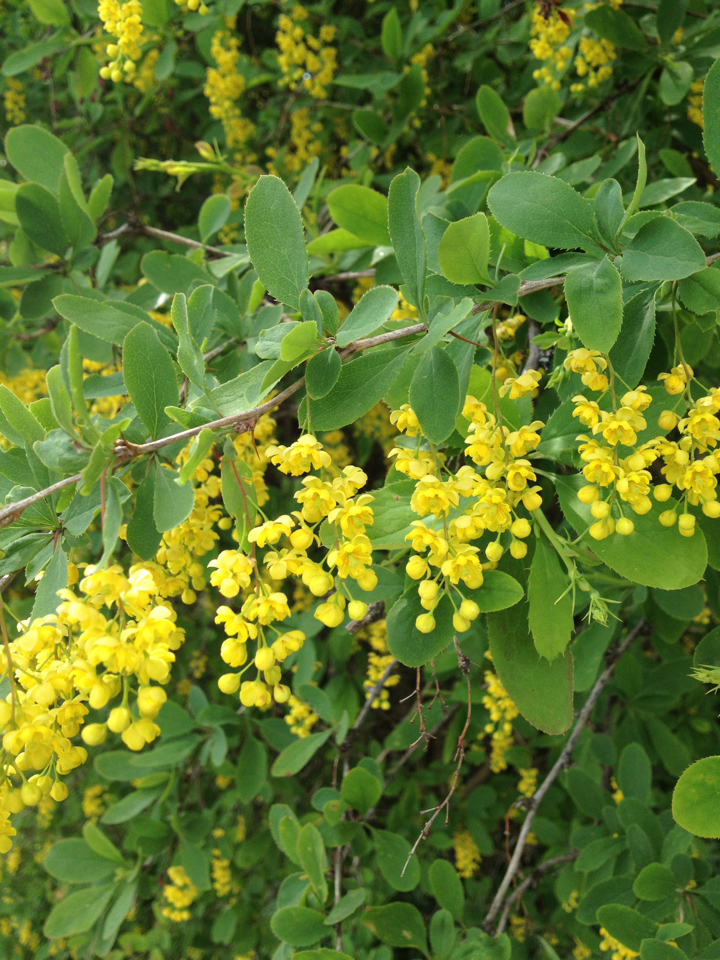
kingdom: Plantae
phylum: Tracheophyta
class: Magnoliopsida
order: Ranunculales
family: Berberidaceae
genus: Berberis
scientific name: Berberis vulgaris
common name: Barberry
